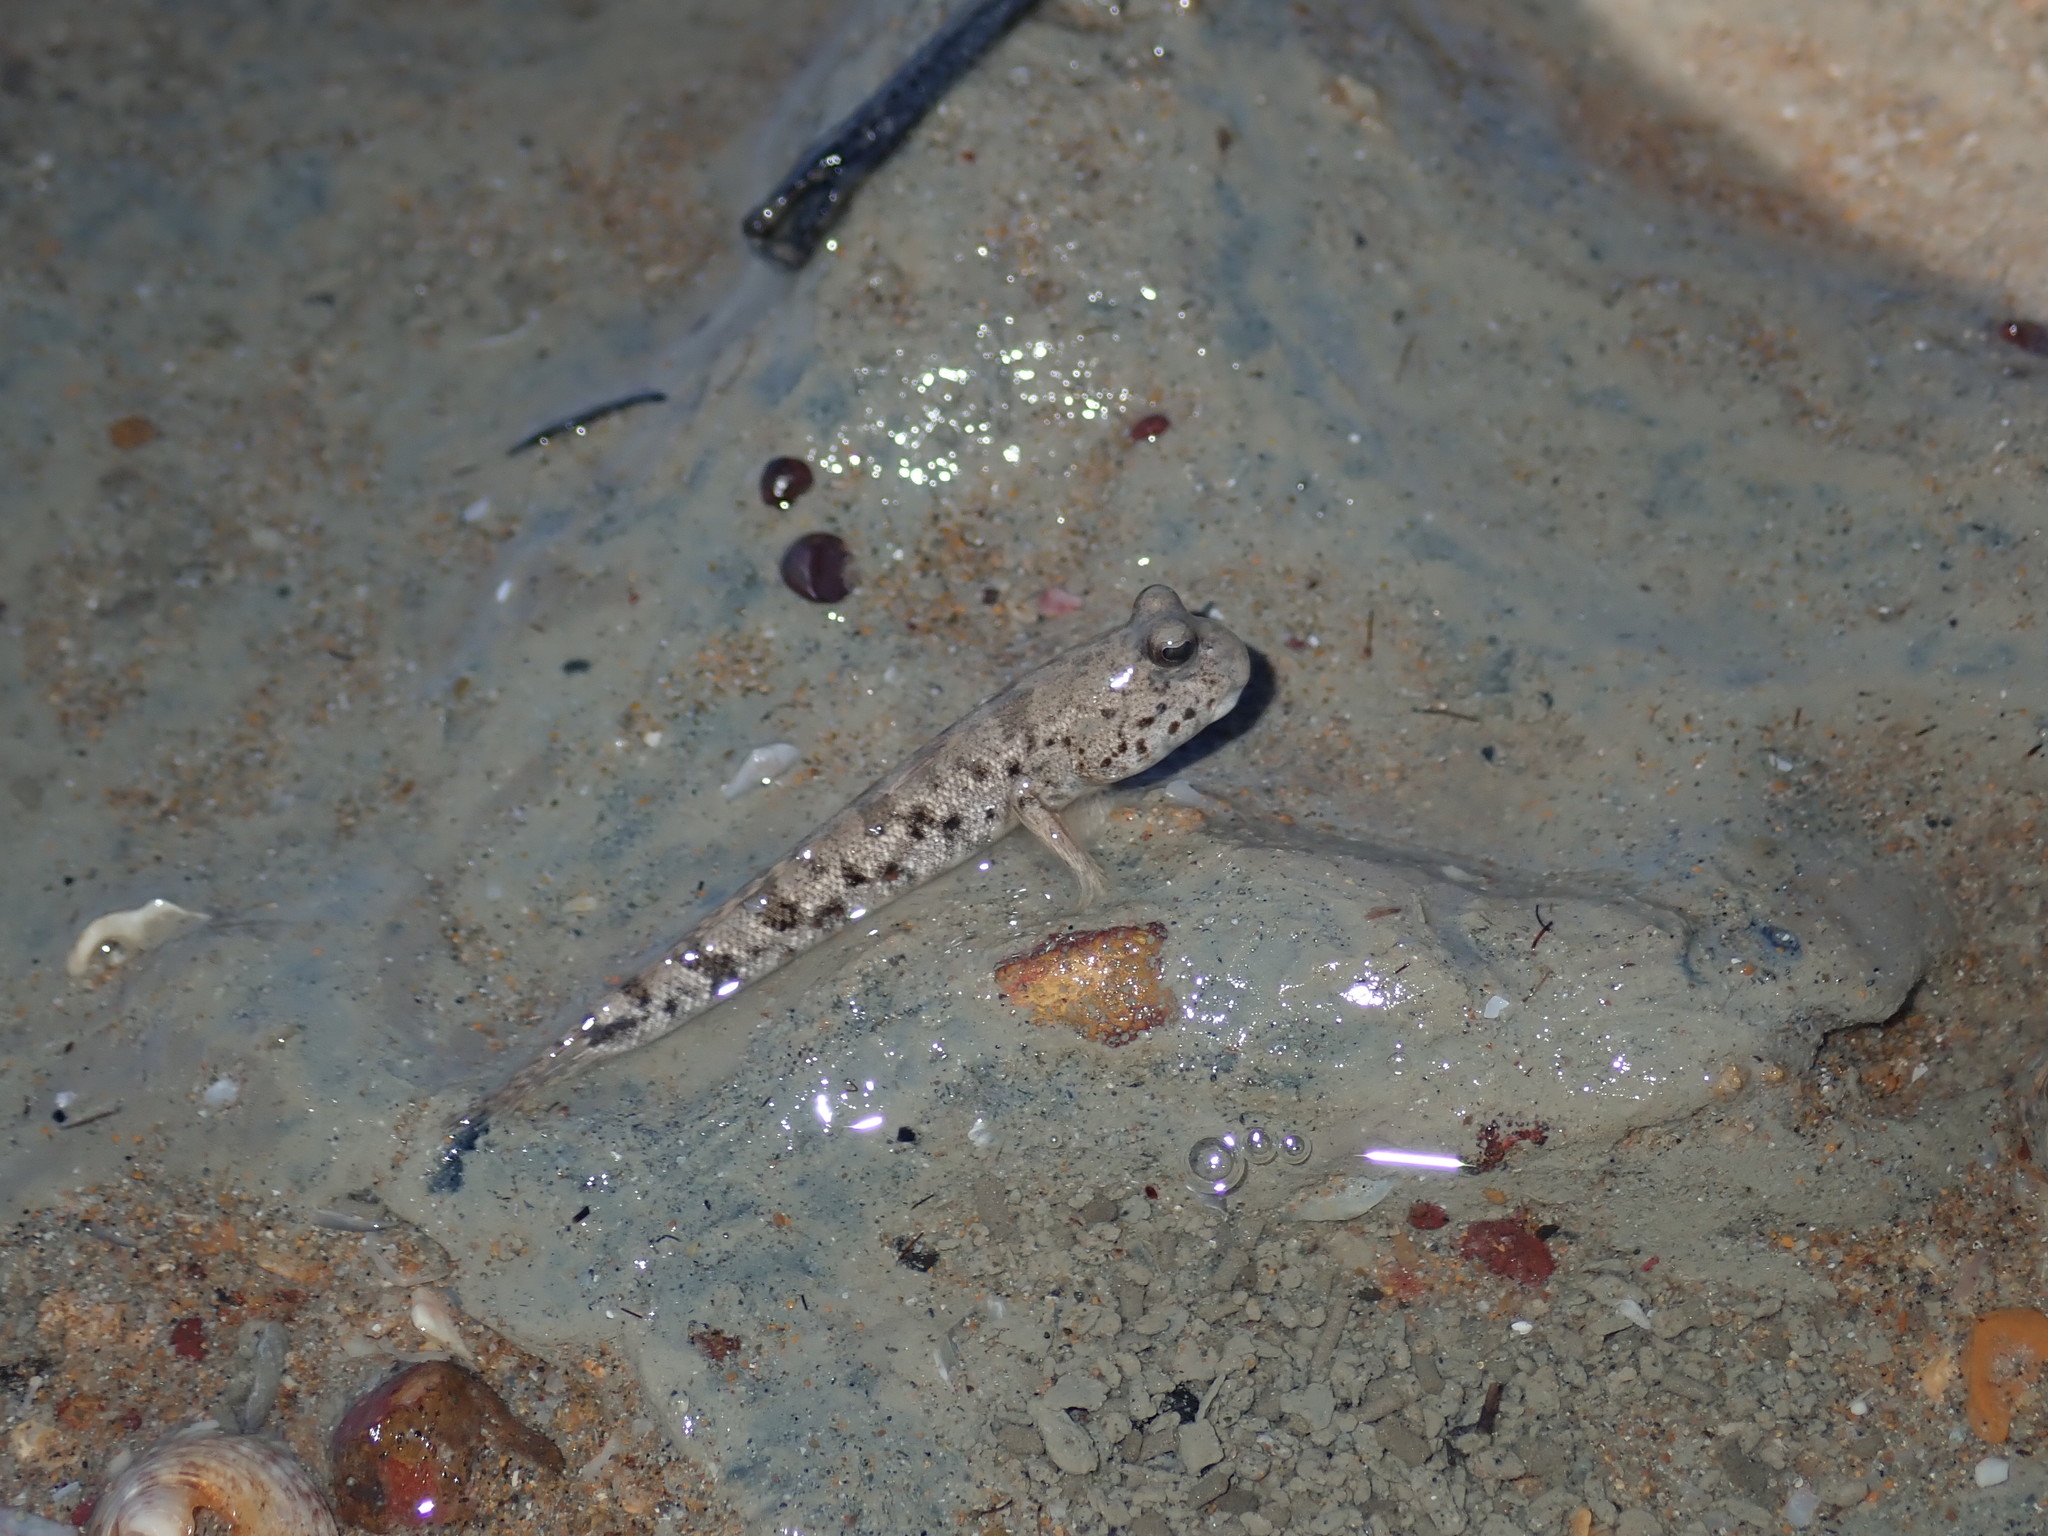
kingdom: Animalia
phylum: Chordata
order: Perciformes
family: Gobiidae
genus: Periophthalmus
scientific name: Periophthalmus takita
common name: Takita's mudskipper
